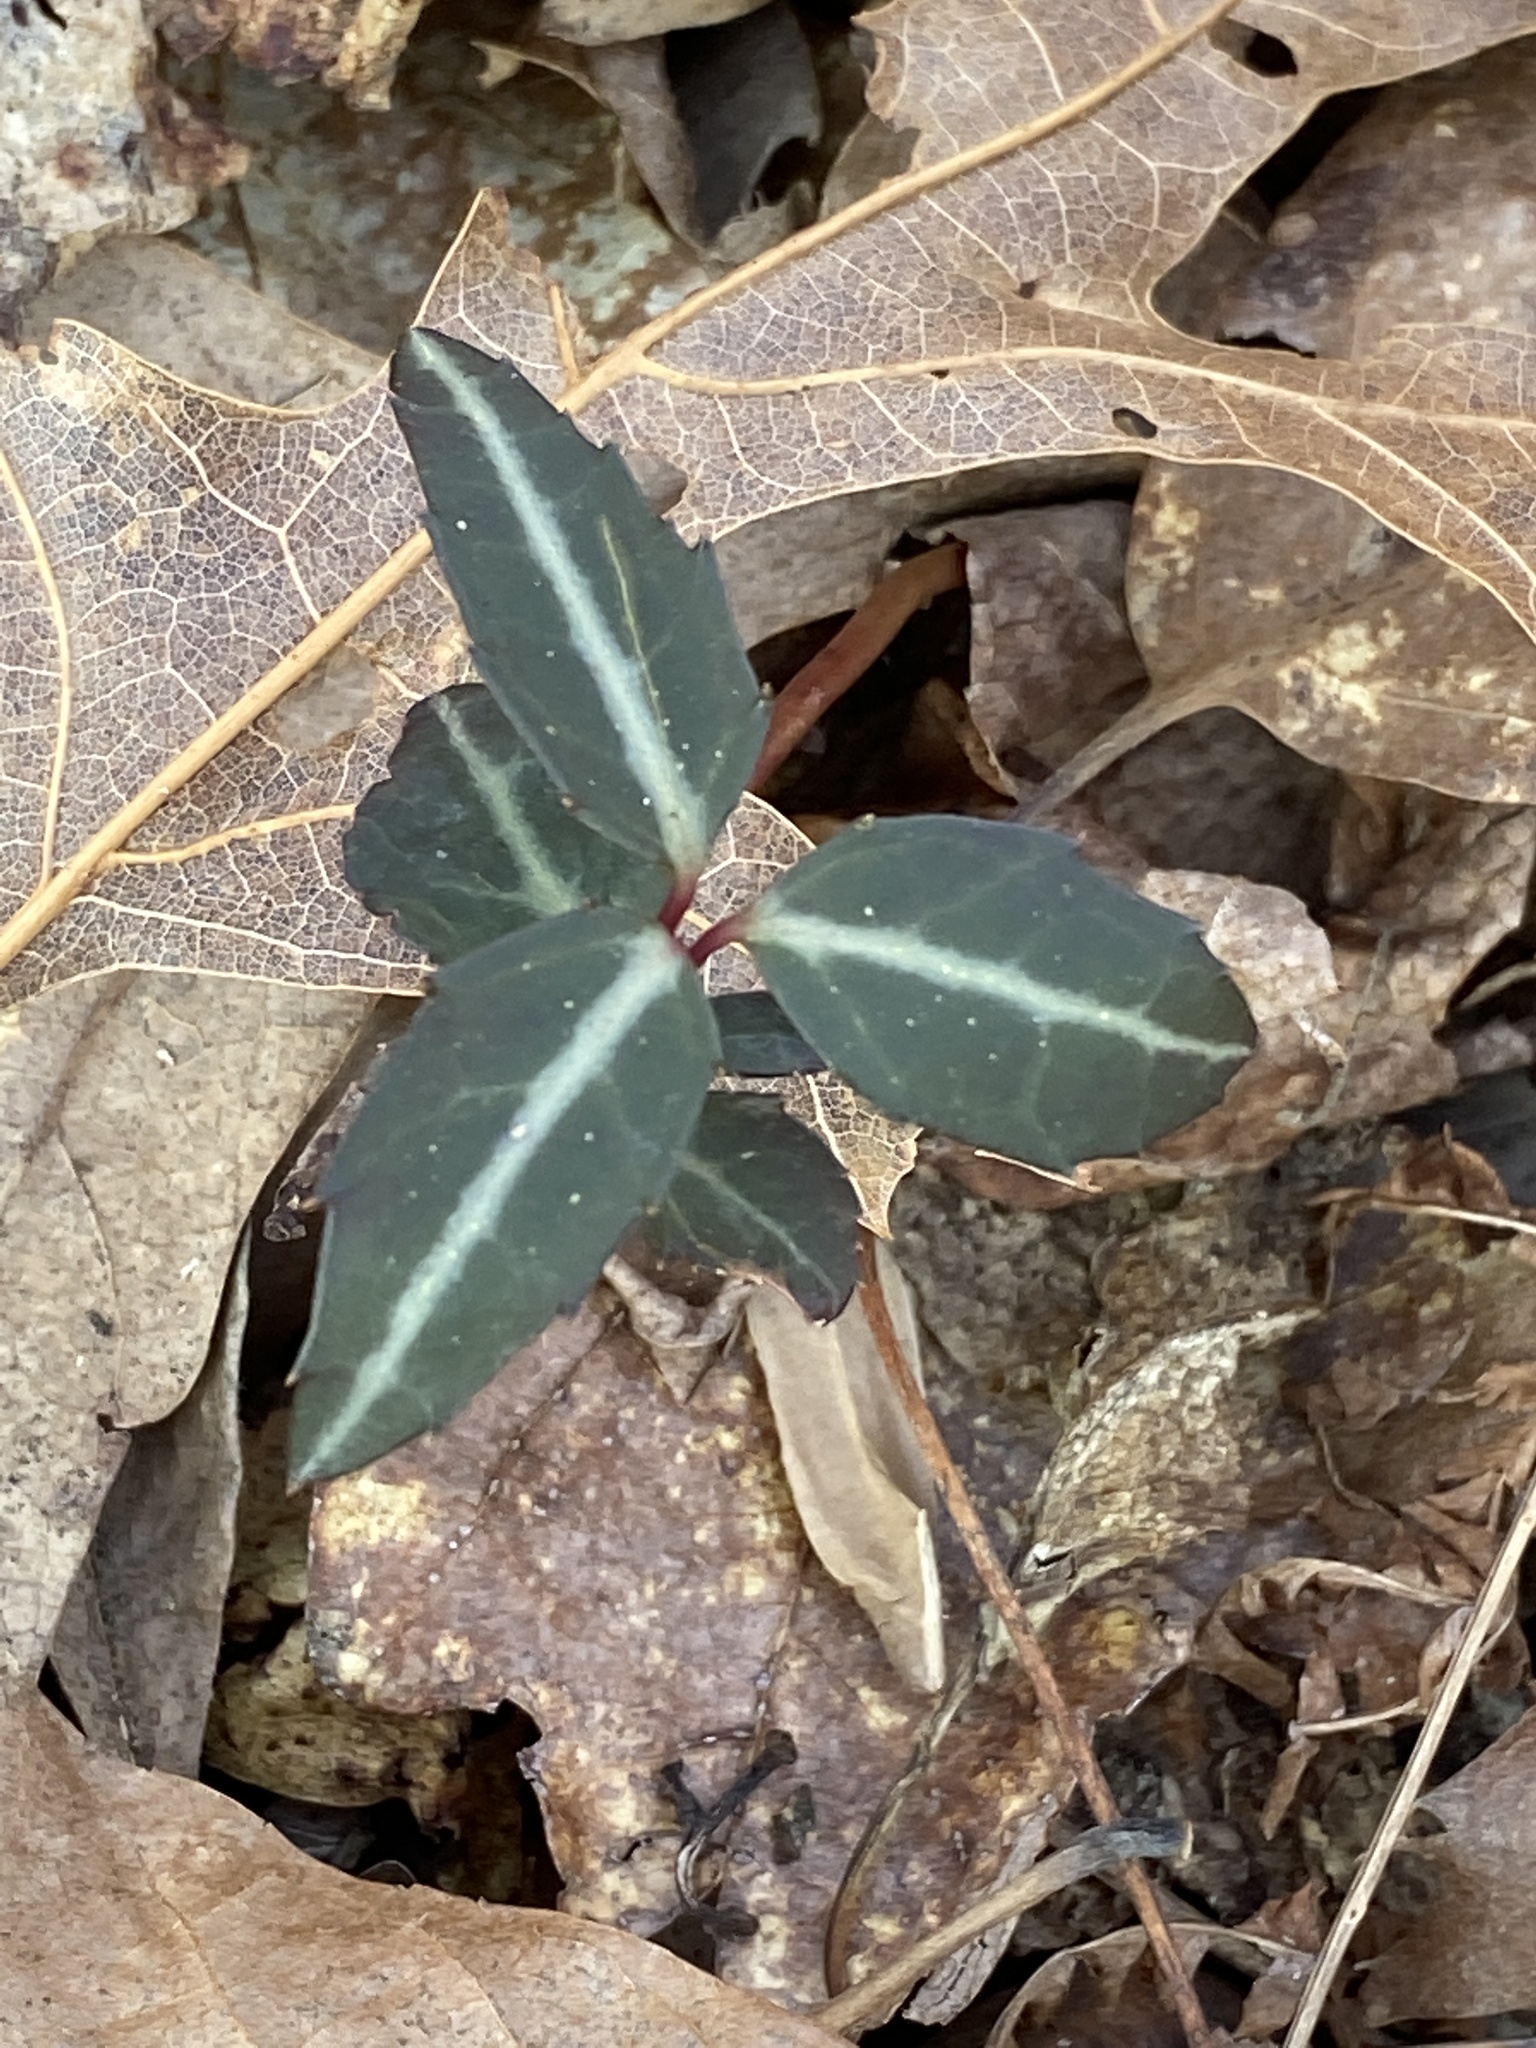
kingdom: Plantae
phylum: Tracheophyta
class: Magnoliopsida
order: Ericales
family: Ericaceae
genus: Chimaphila
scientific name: Chimaphila maculata
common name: Spotted pipsissewa
